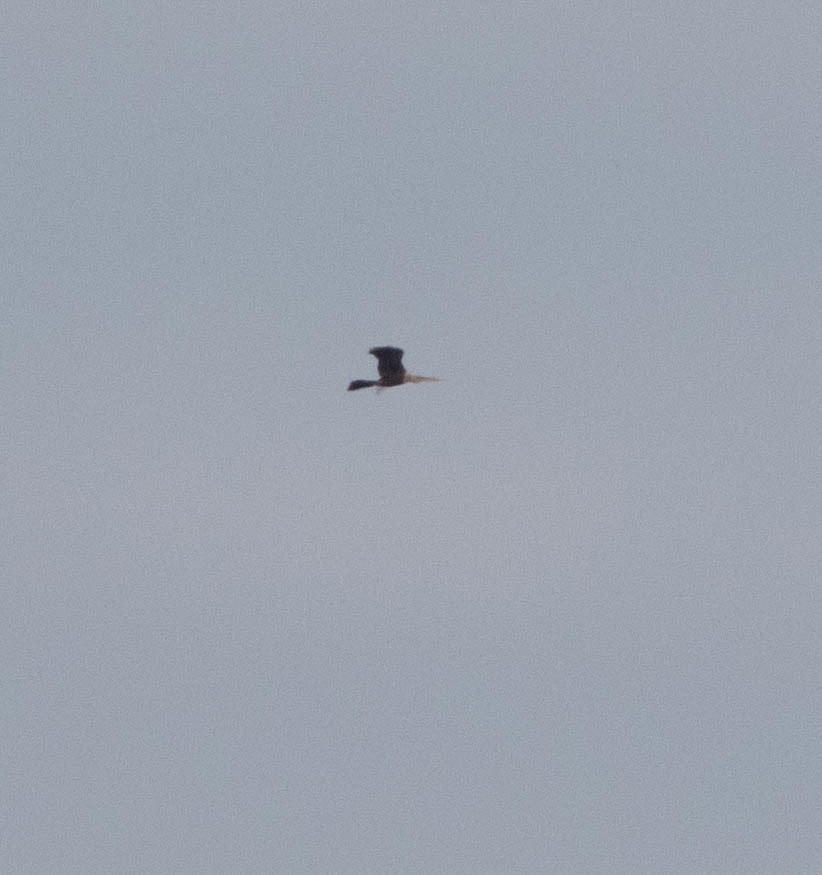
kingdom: Animalia
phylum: Chordata
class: Aves
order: Suliformes
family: Anhingidae
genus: Anhinga
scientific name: Anhinga anhinga
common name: Anhinga
